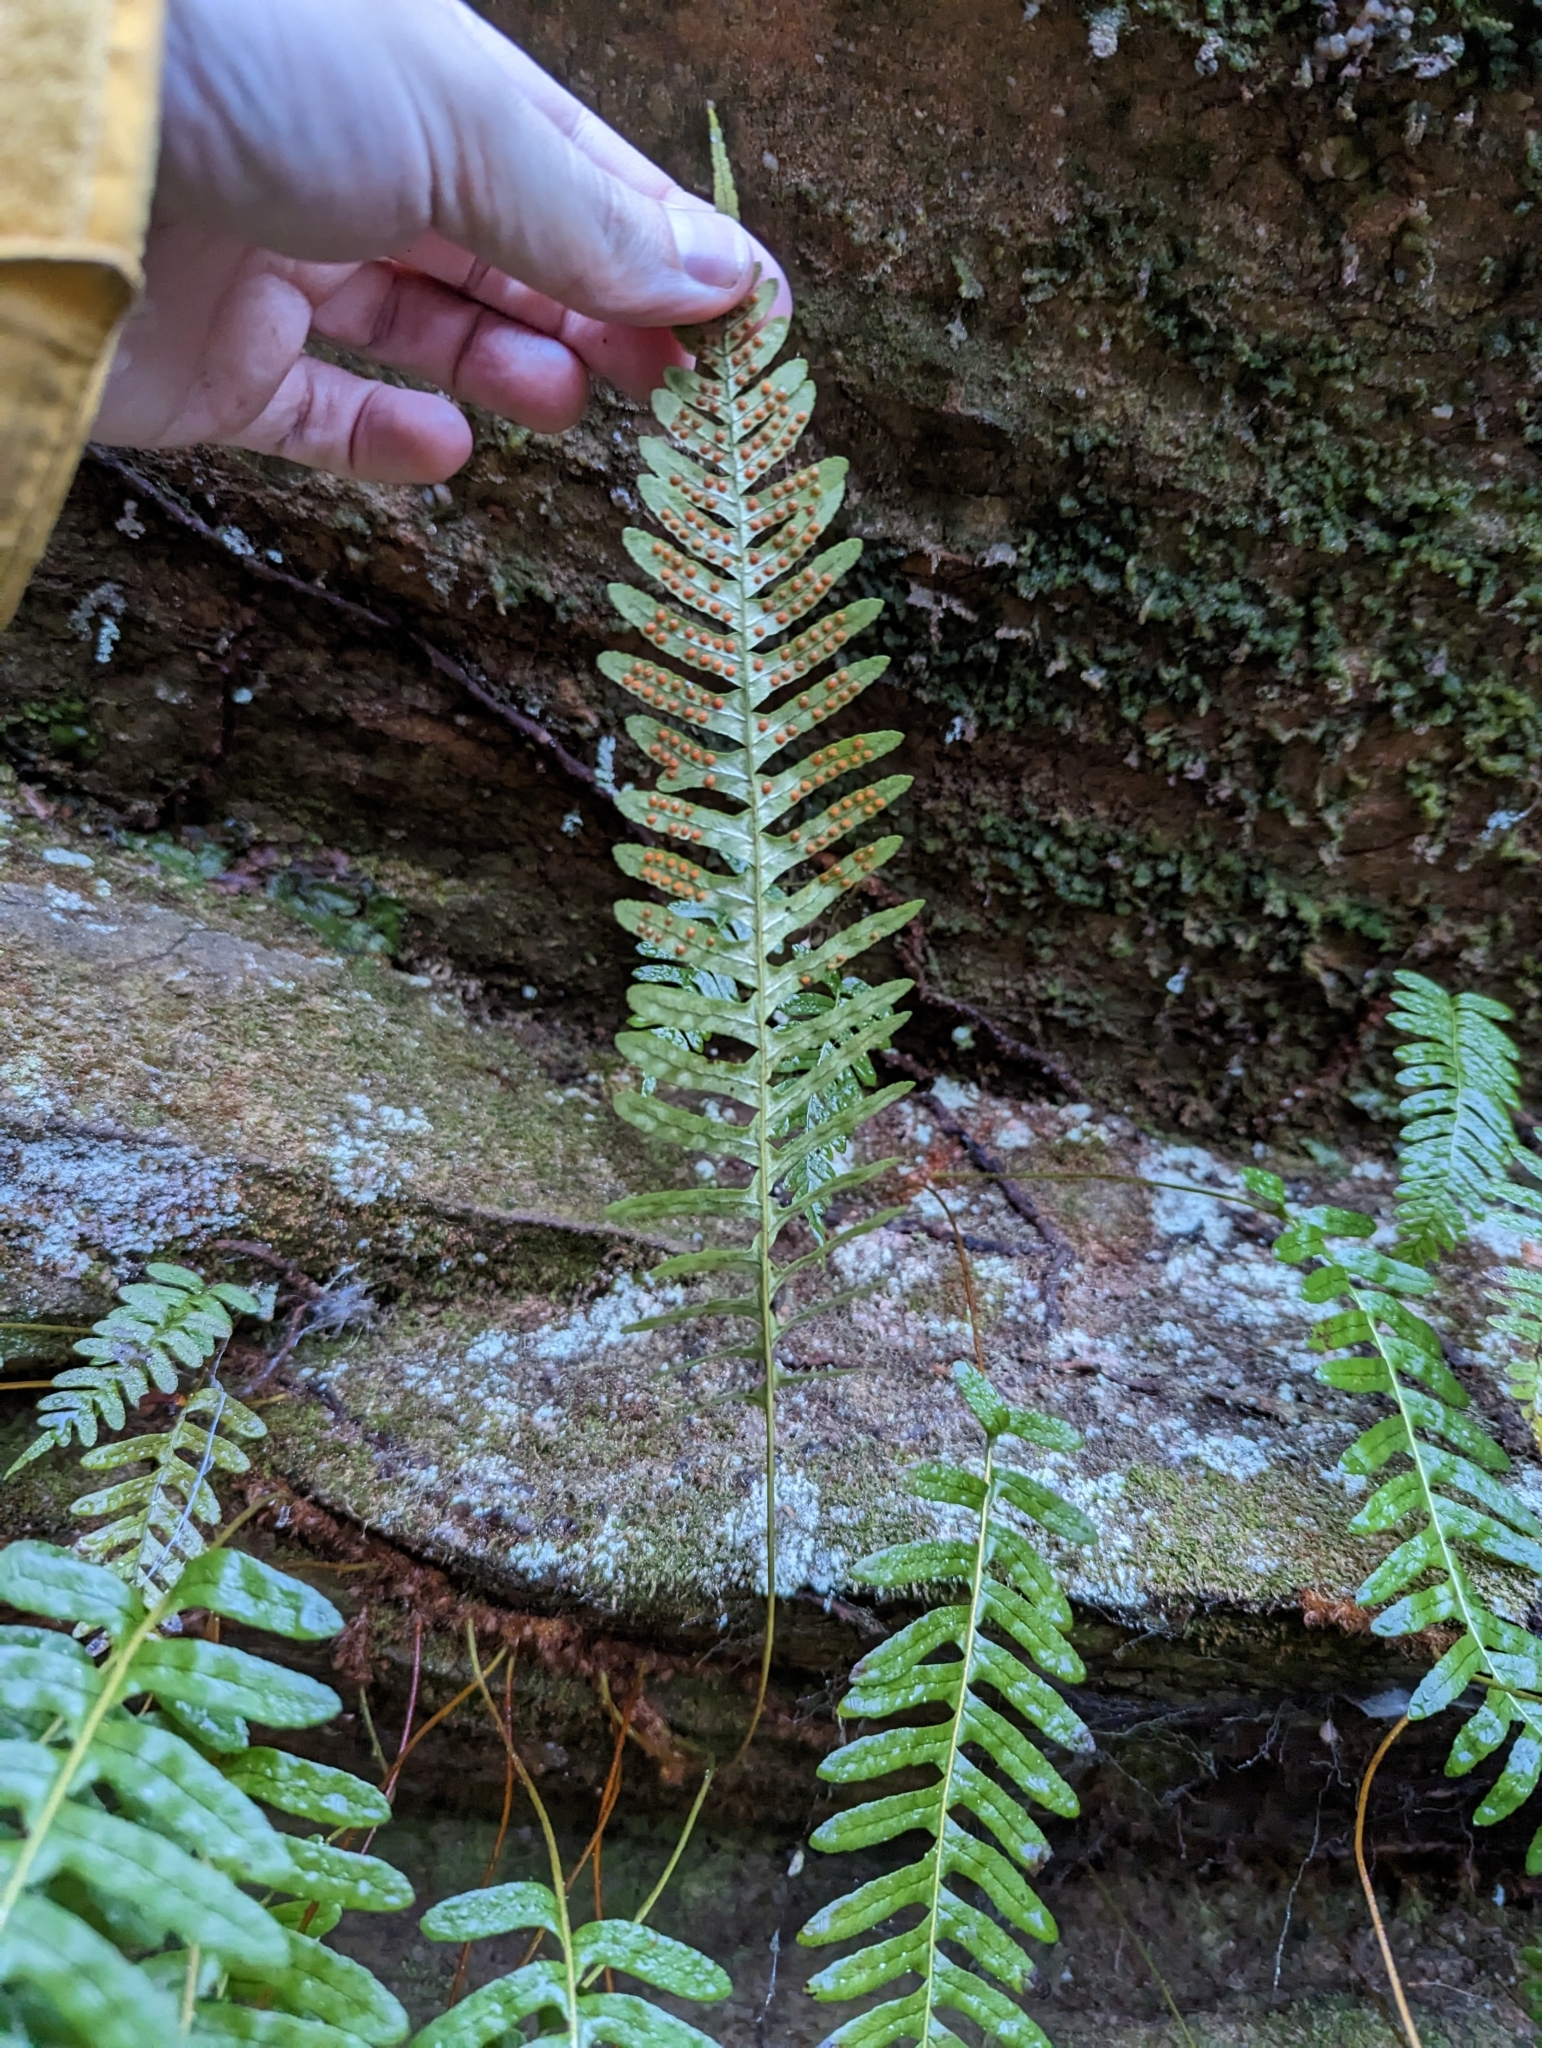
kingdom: Plantae
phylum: Tracheophyta
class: Polypodiopsida
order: Polypodiales
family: Polypodiaceae
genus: Polypodium
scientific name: Polypodium virginianum
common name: American wall fern
